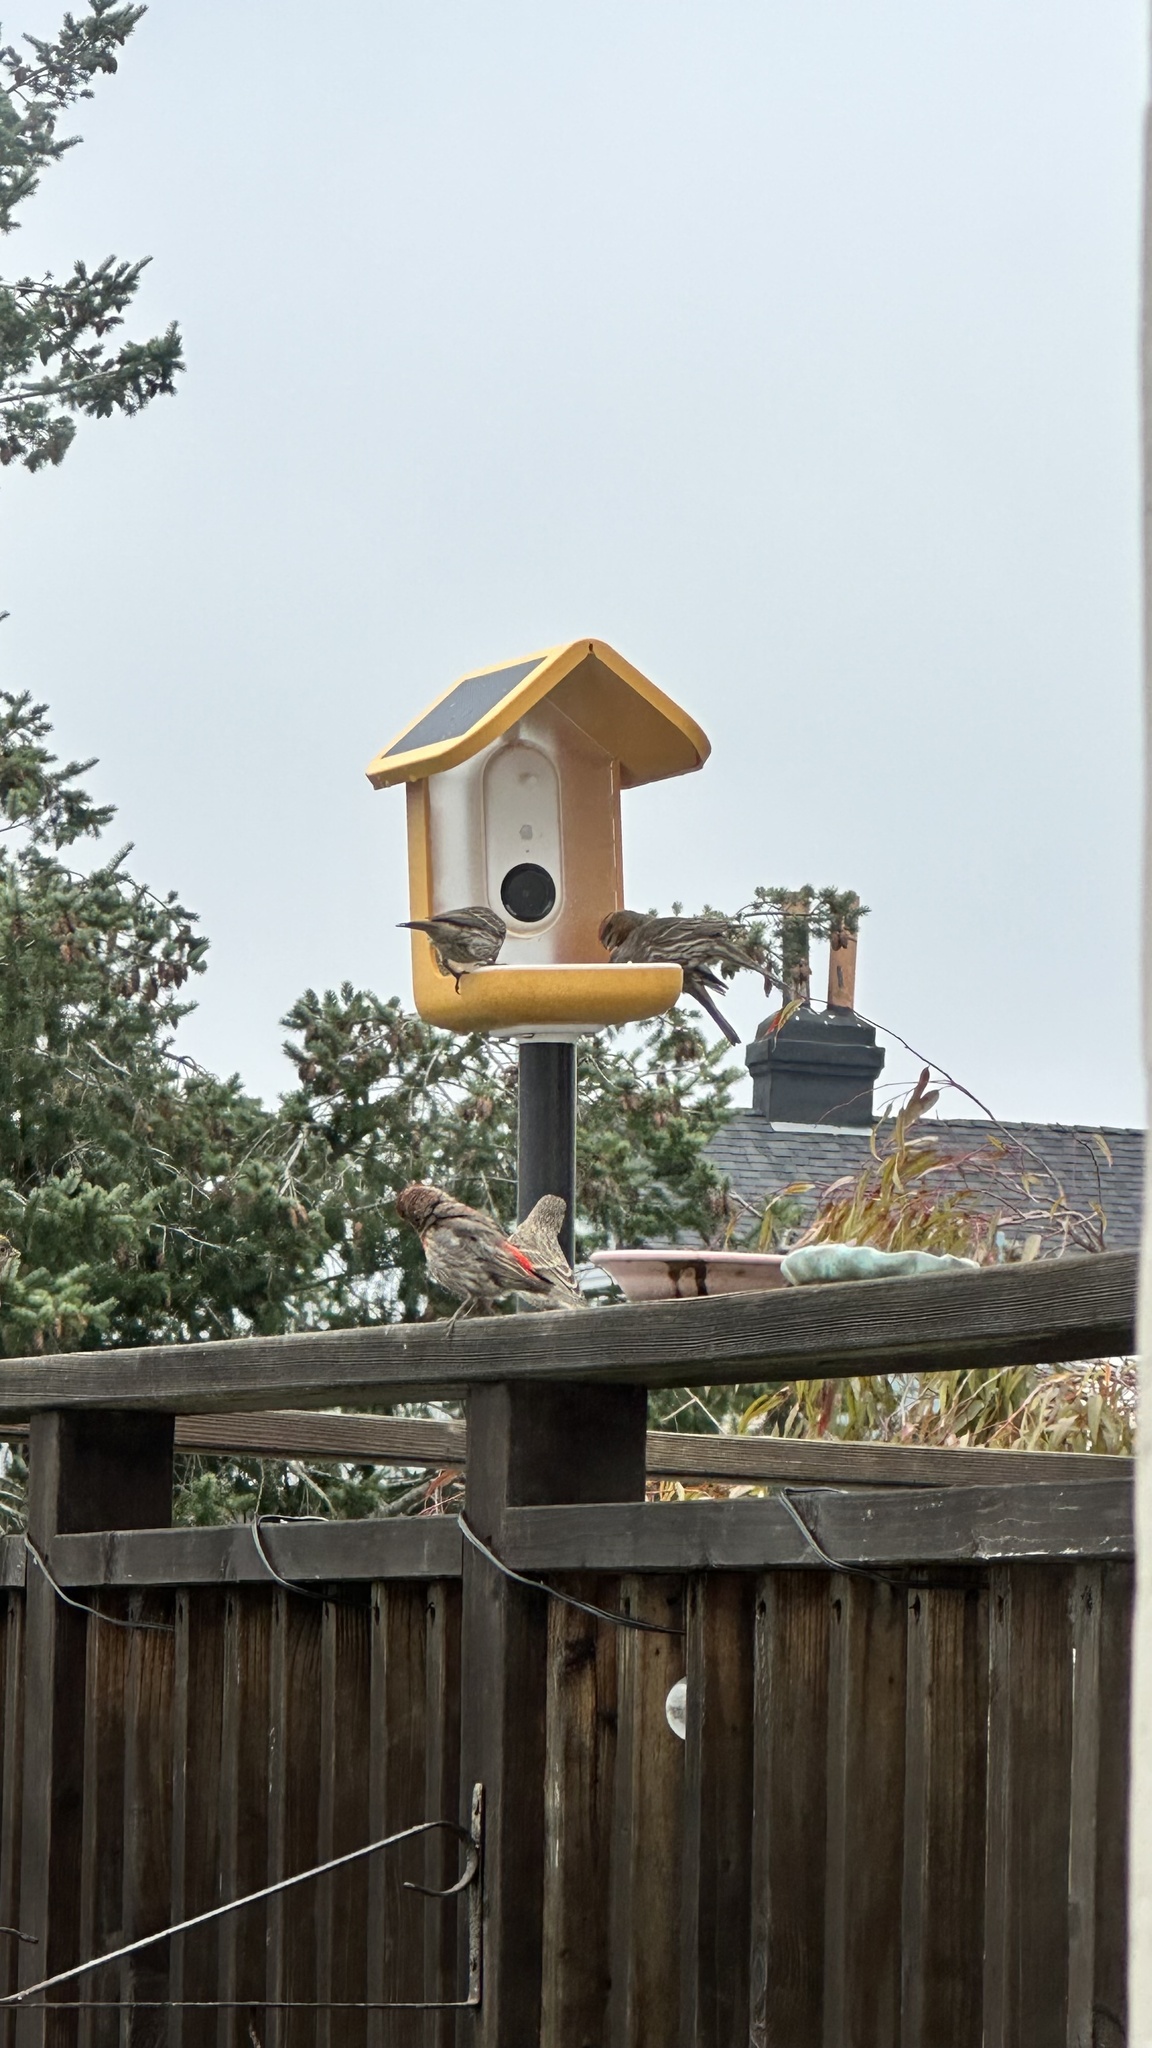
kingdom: Animalia
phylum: Chordata
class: Aves
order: Passeriformes
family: Fringillidae
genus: Haemorhous
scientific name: Haemorhous mexicanus
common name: House finch
